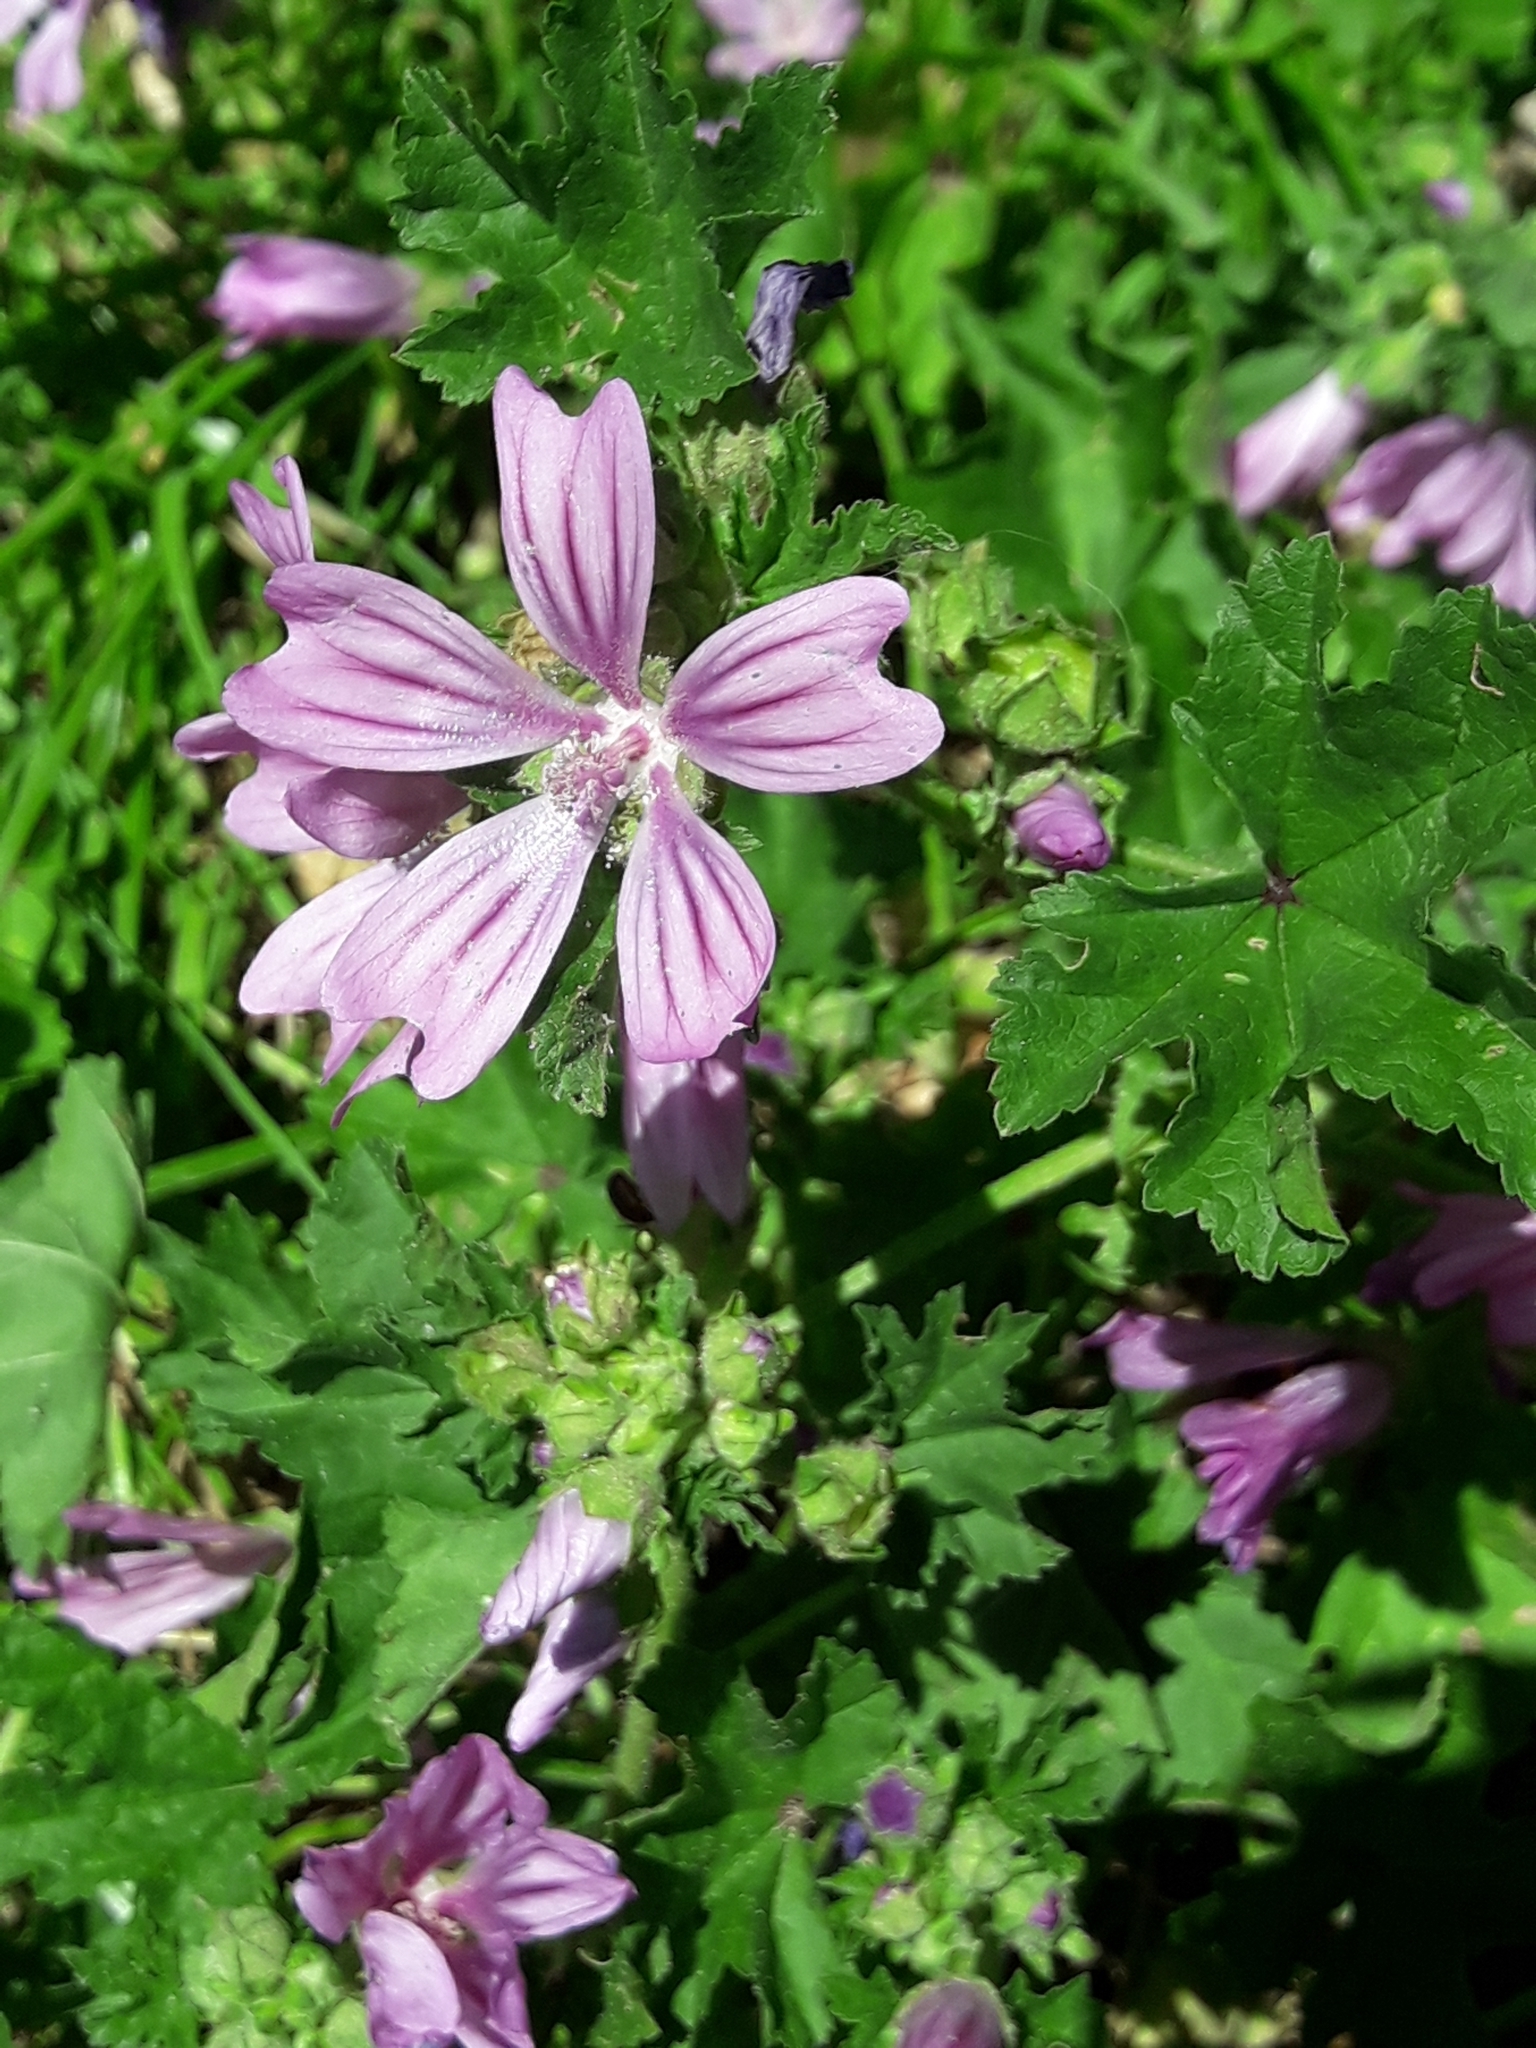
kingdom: Plantae
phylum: Tracheophyta
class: Magnoliopsida
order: Malvales
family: Malvaceae
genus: Malva
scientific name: Malva sylvestris
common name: Common mallow
